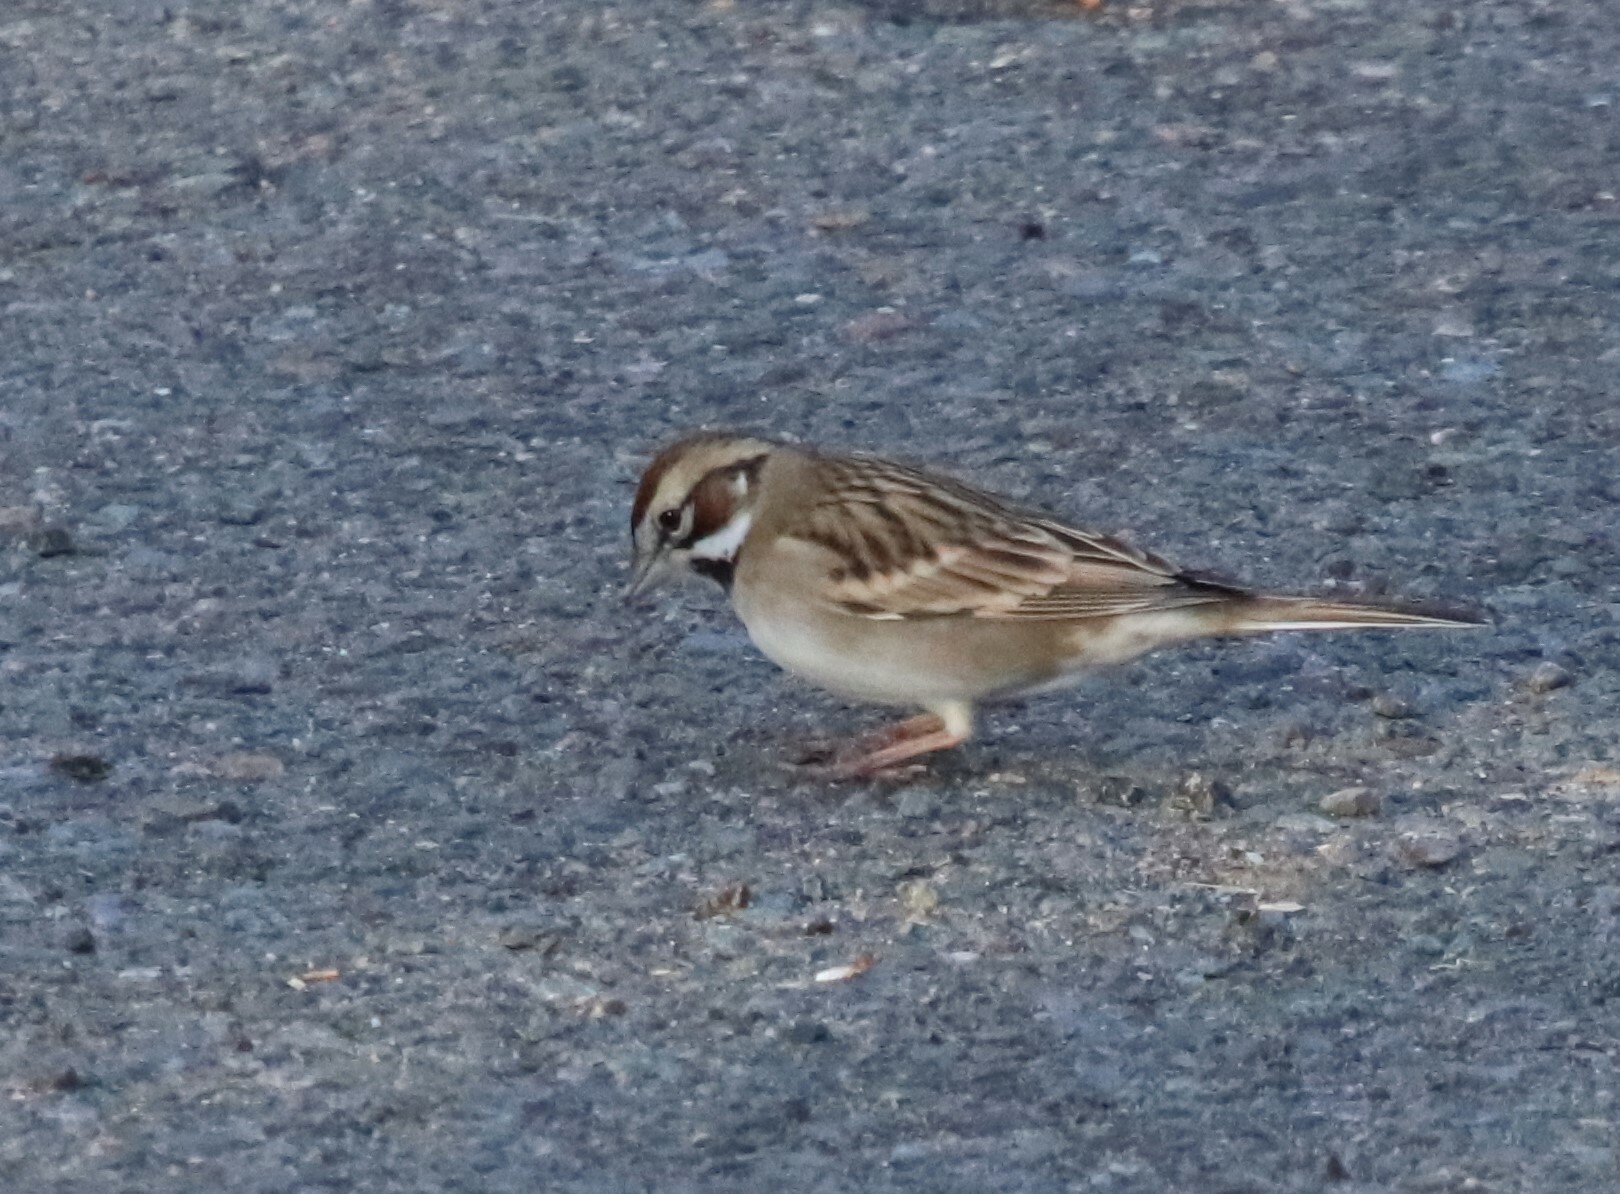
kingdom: Animalia
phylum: Chordata
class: Aves
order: Passeriformes
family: Passerellidae
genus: Chondestes
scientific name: Chondestes grammacus
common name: Lark sparrow
